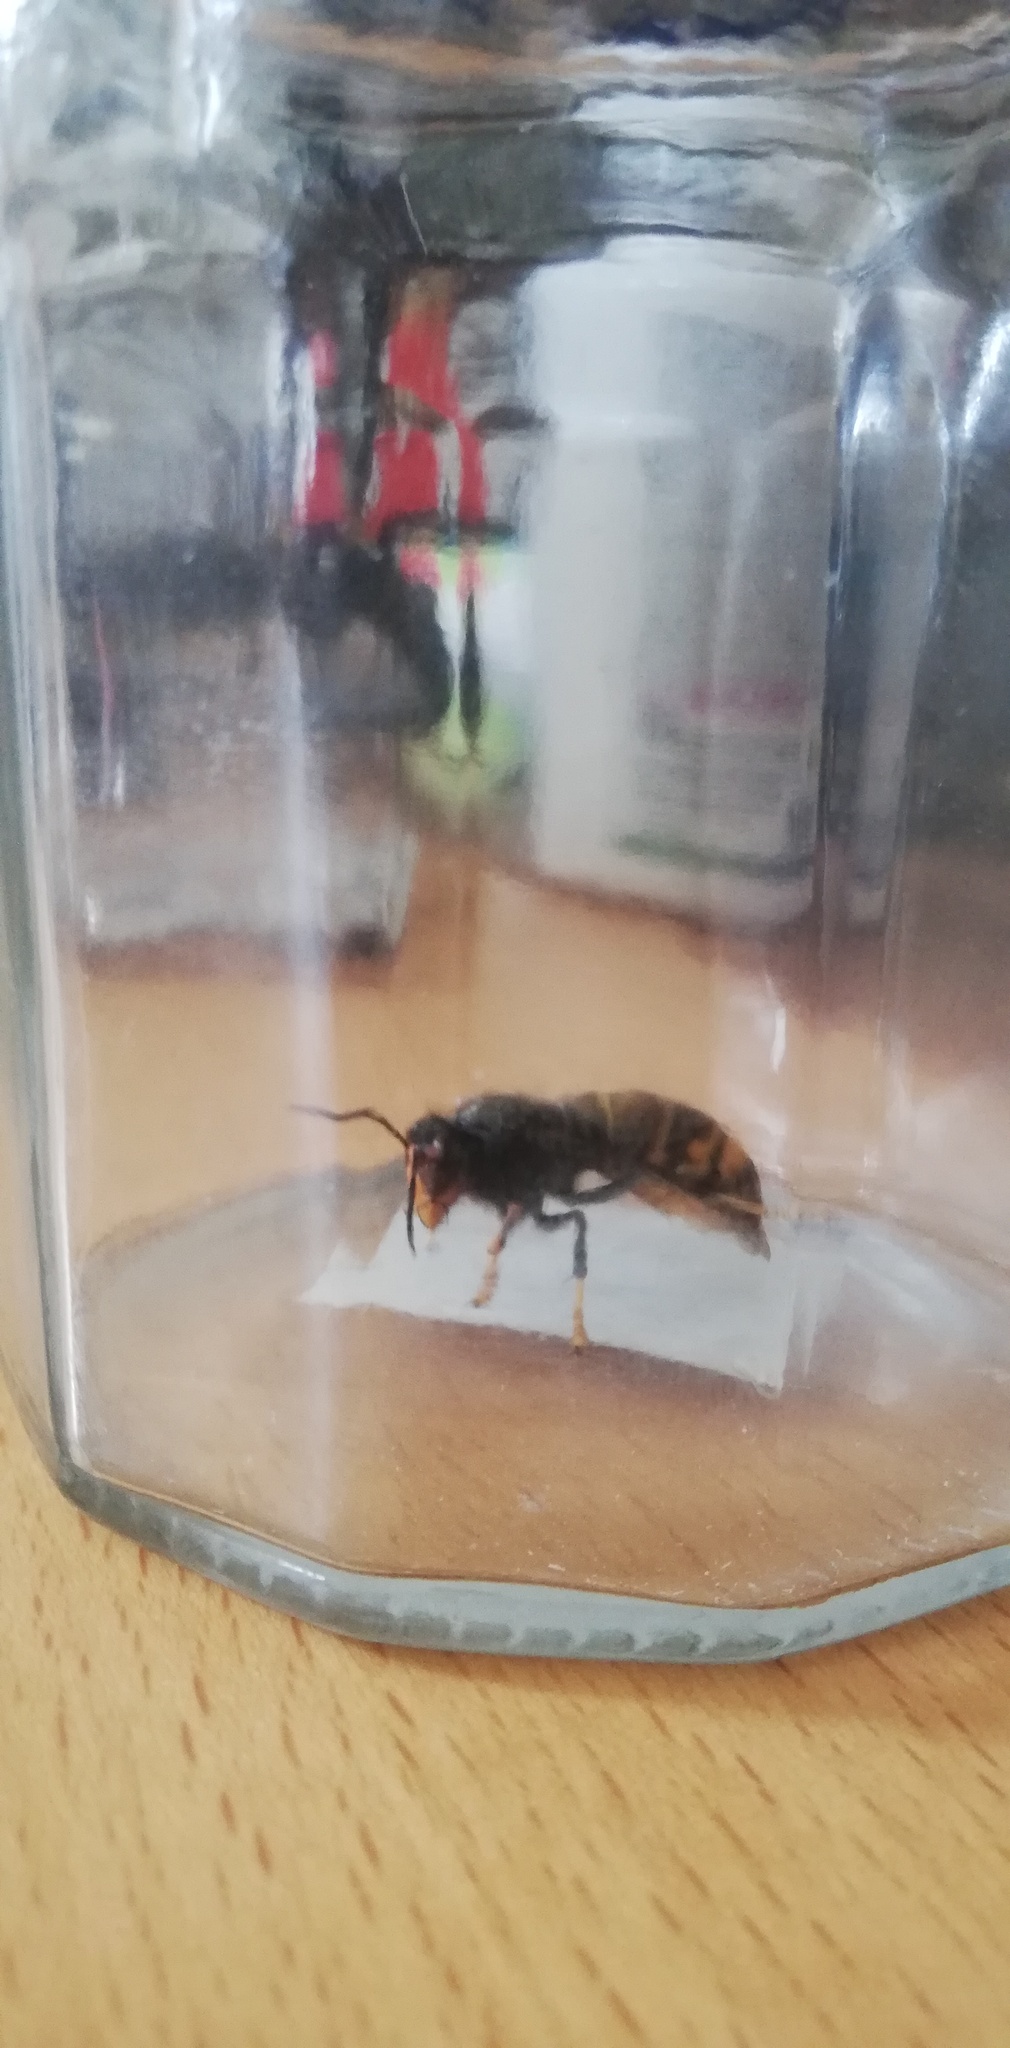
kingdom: Animalia
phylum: Arthropoda
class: Insecta
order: Hymenoptera
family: Vespidae
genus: Vespa
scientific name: Vespa velutina
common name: Asian hornet
